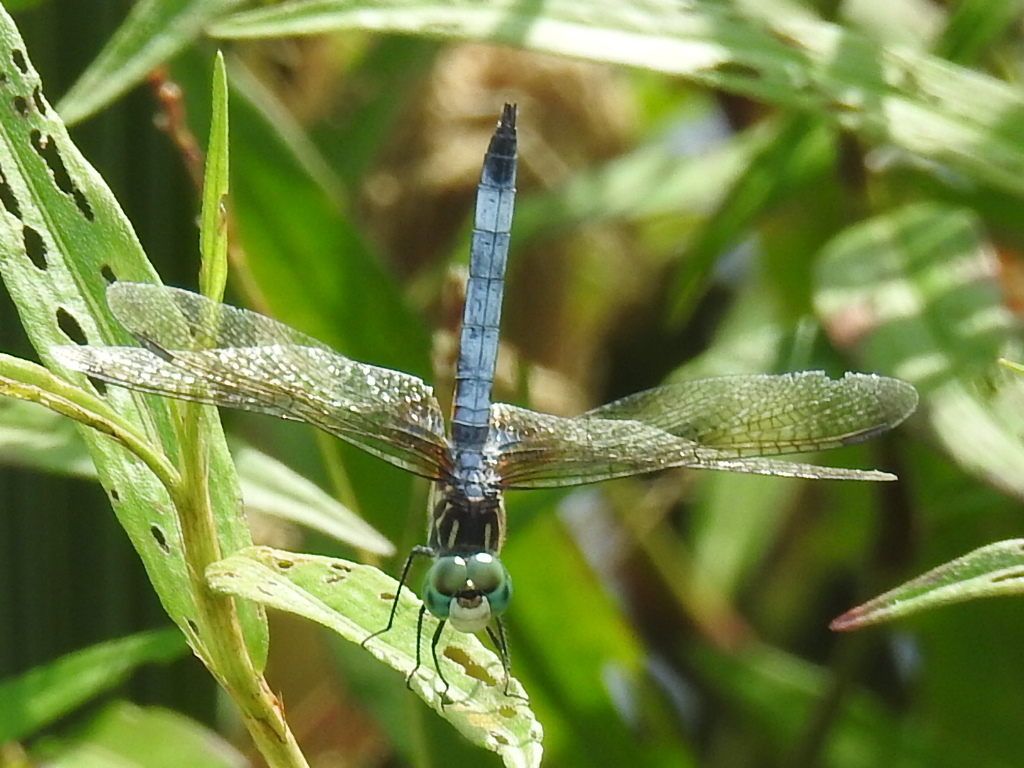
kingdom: Animalia
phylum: Arthropoda
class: Insecta
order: Odonata
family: Libellulidae
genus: Pachydiplax
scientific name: Pachydiplax longipennis
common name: Blue dasher
